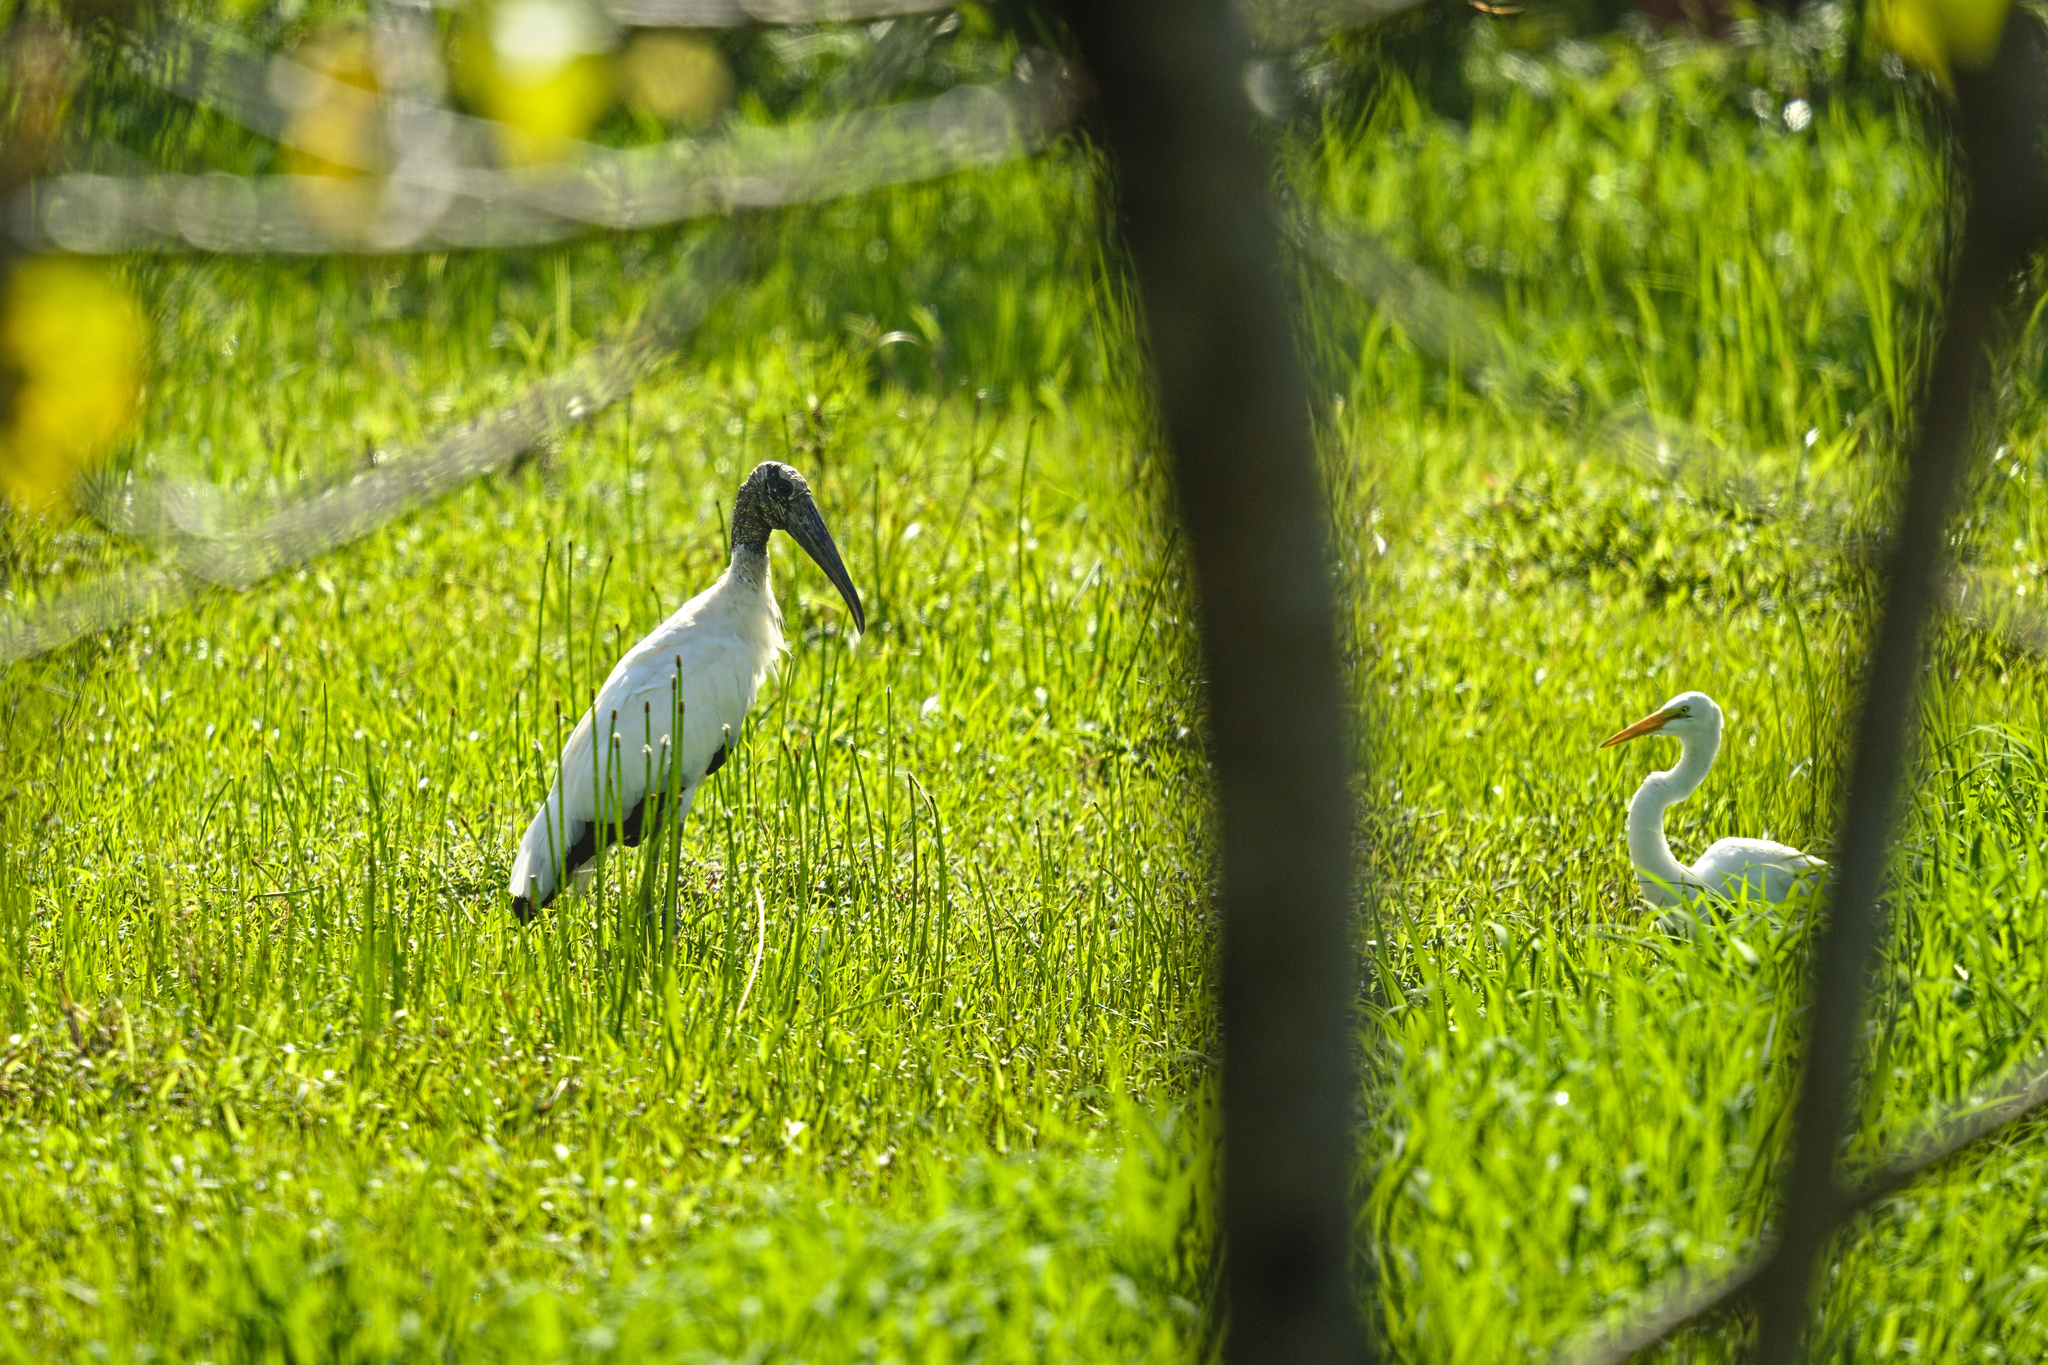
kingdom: Animalia
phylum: Chordata
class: Aves
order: Pelecaniformes
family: Ardeidae
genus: Ardea
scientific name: Ardea alba
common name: Great egret
